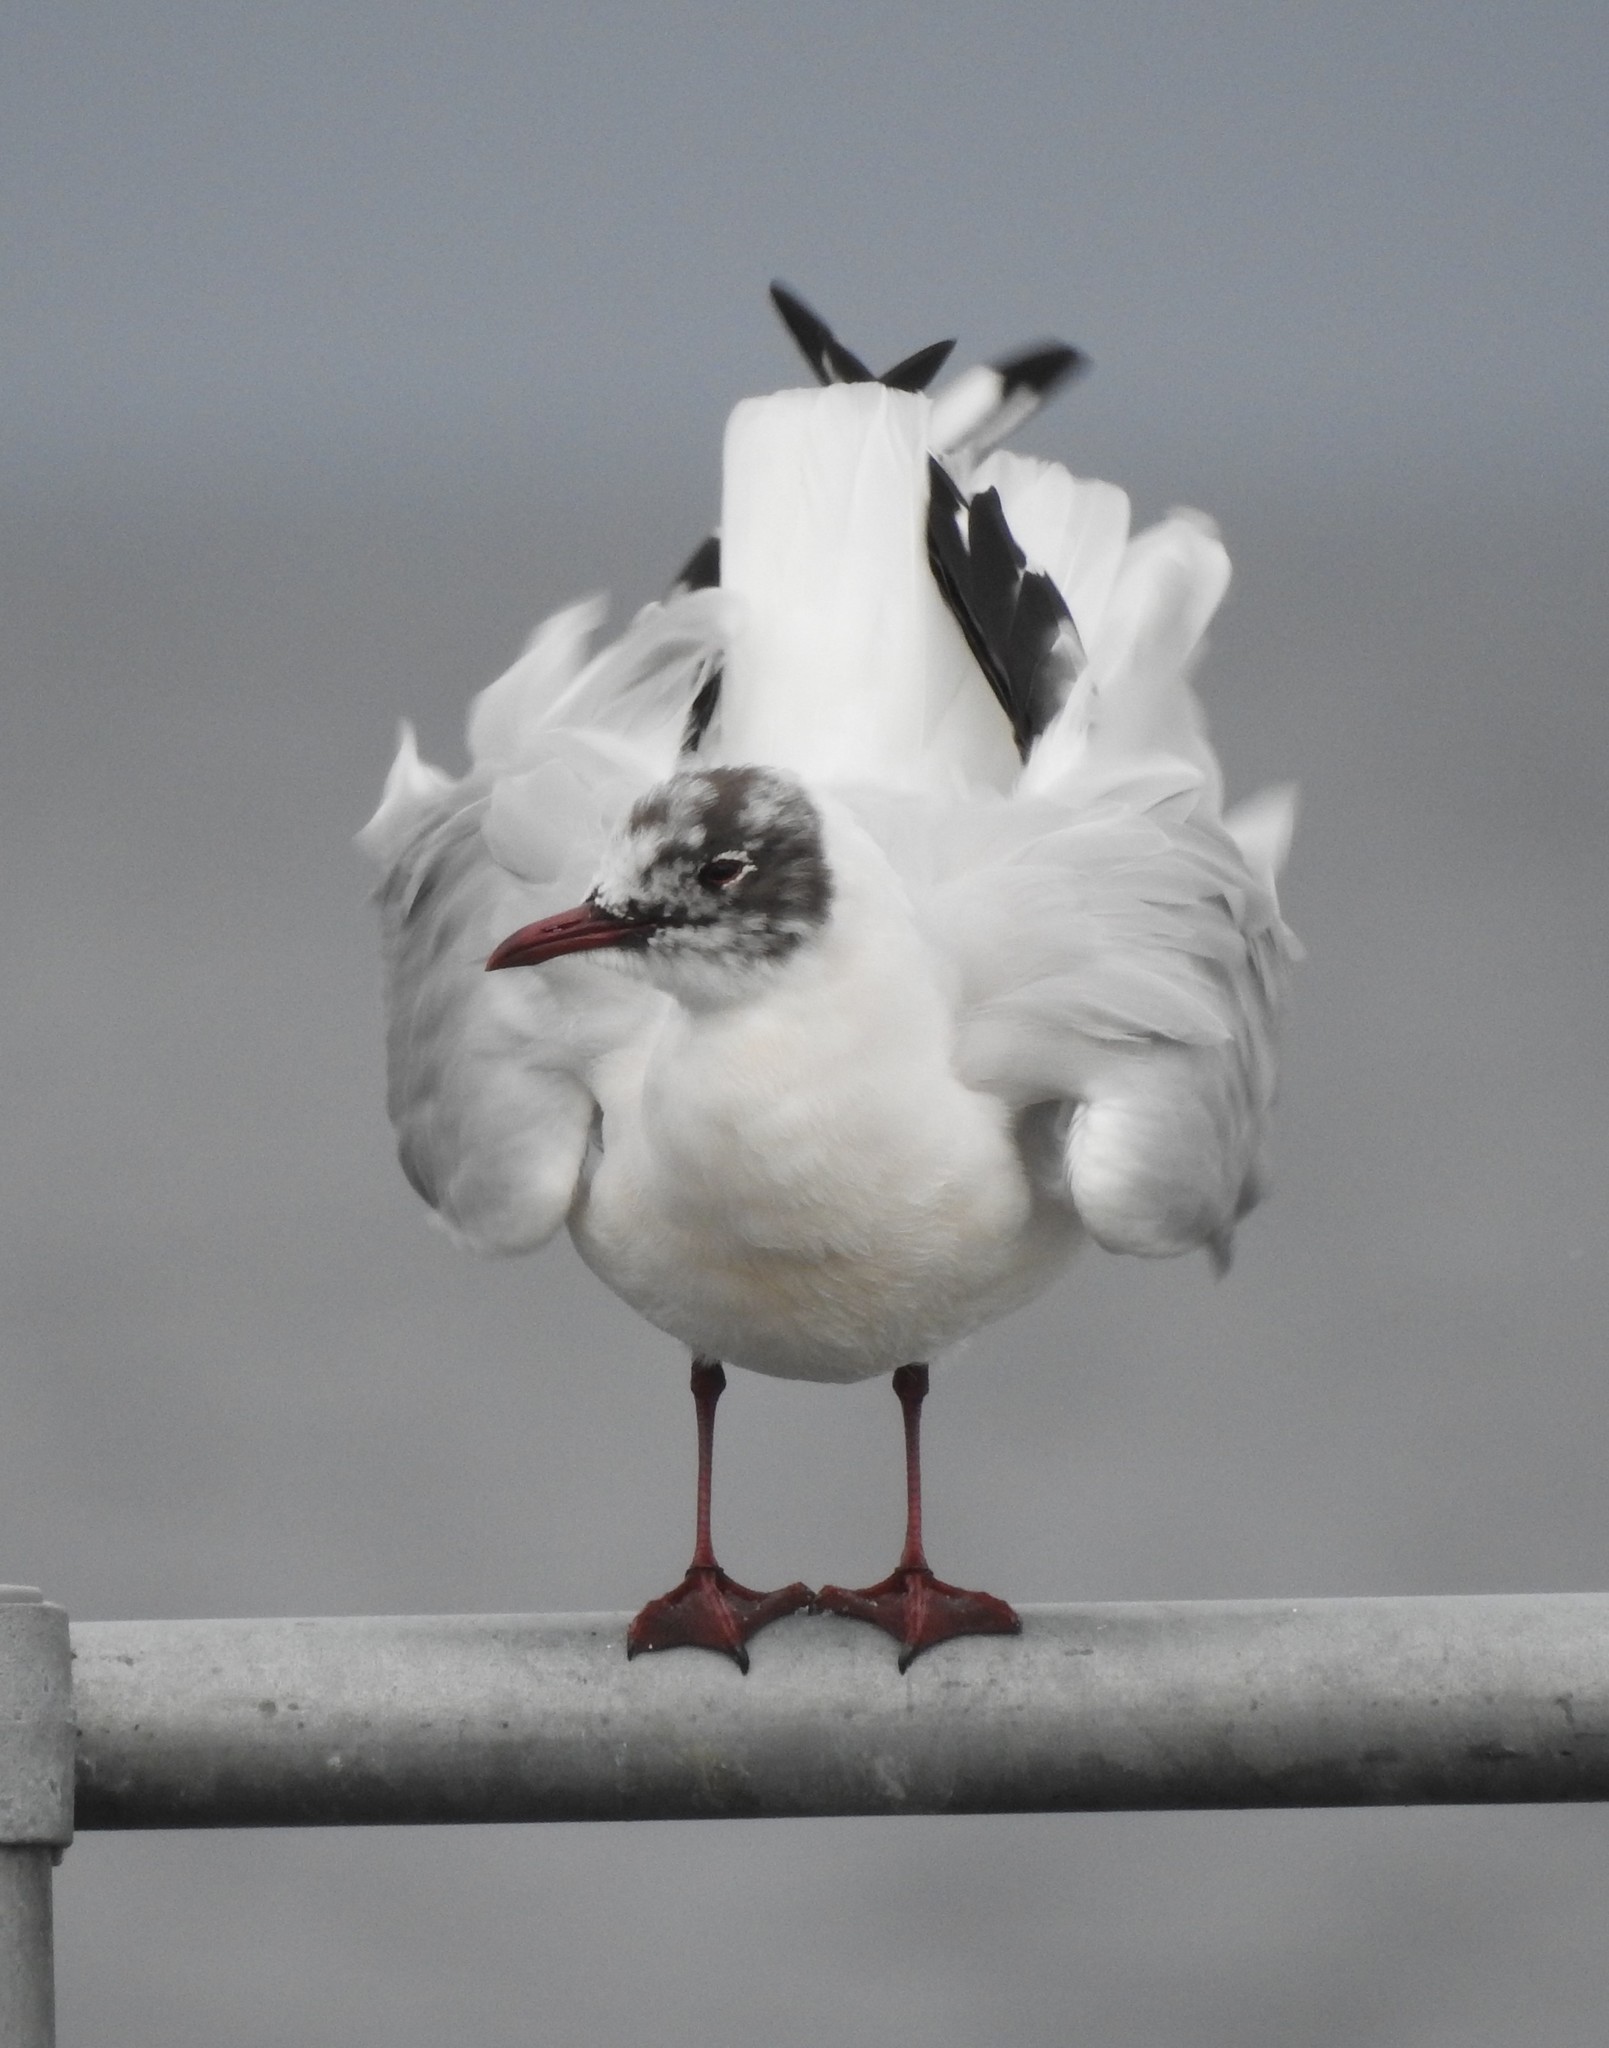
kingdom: Animalia
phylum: Chordata
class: Aves
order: Charadriiformes
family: Laridae
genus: Chroicocephalus
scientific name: Chroicocephalus ridibundus
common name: Black-headed gull
